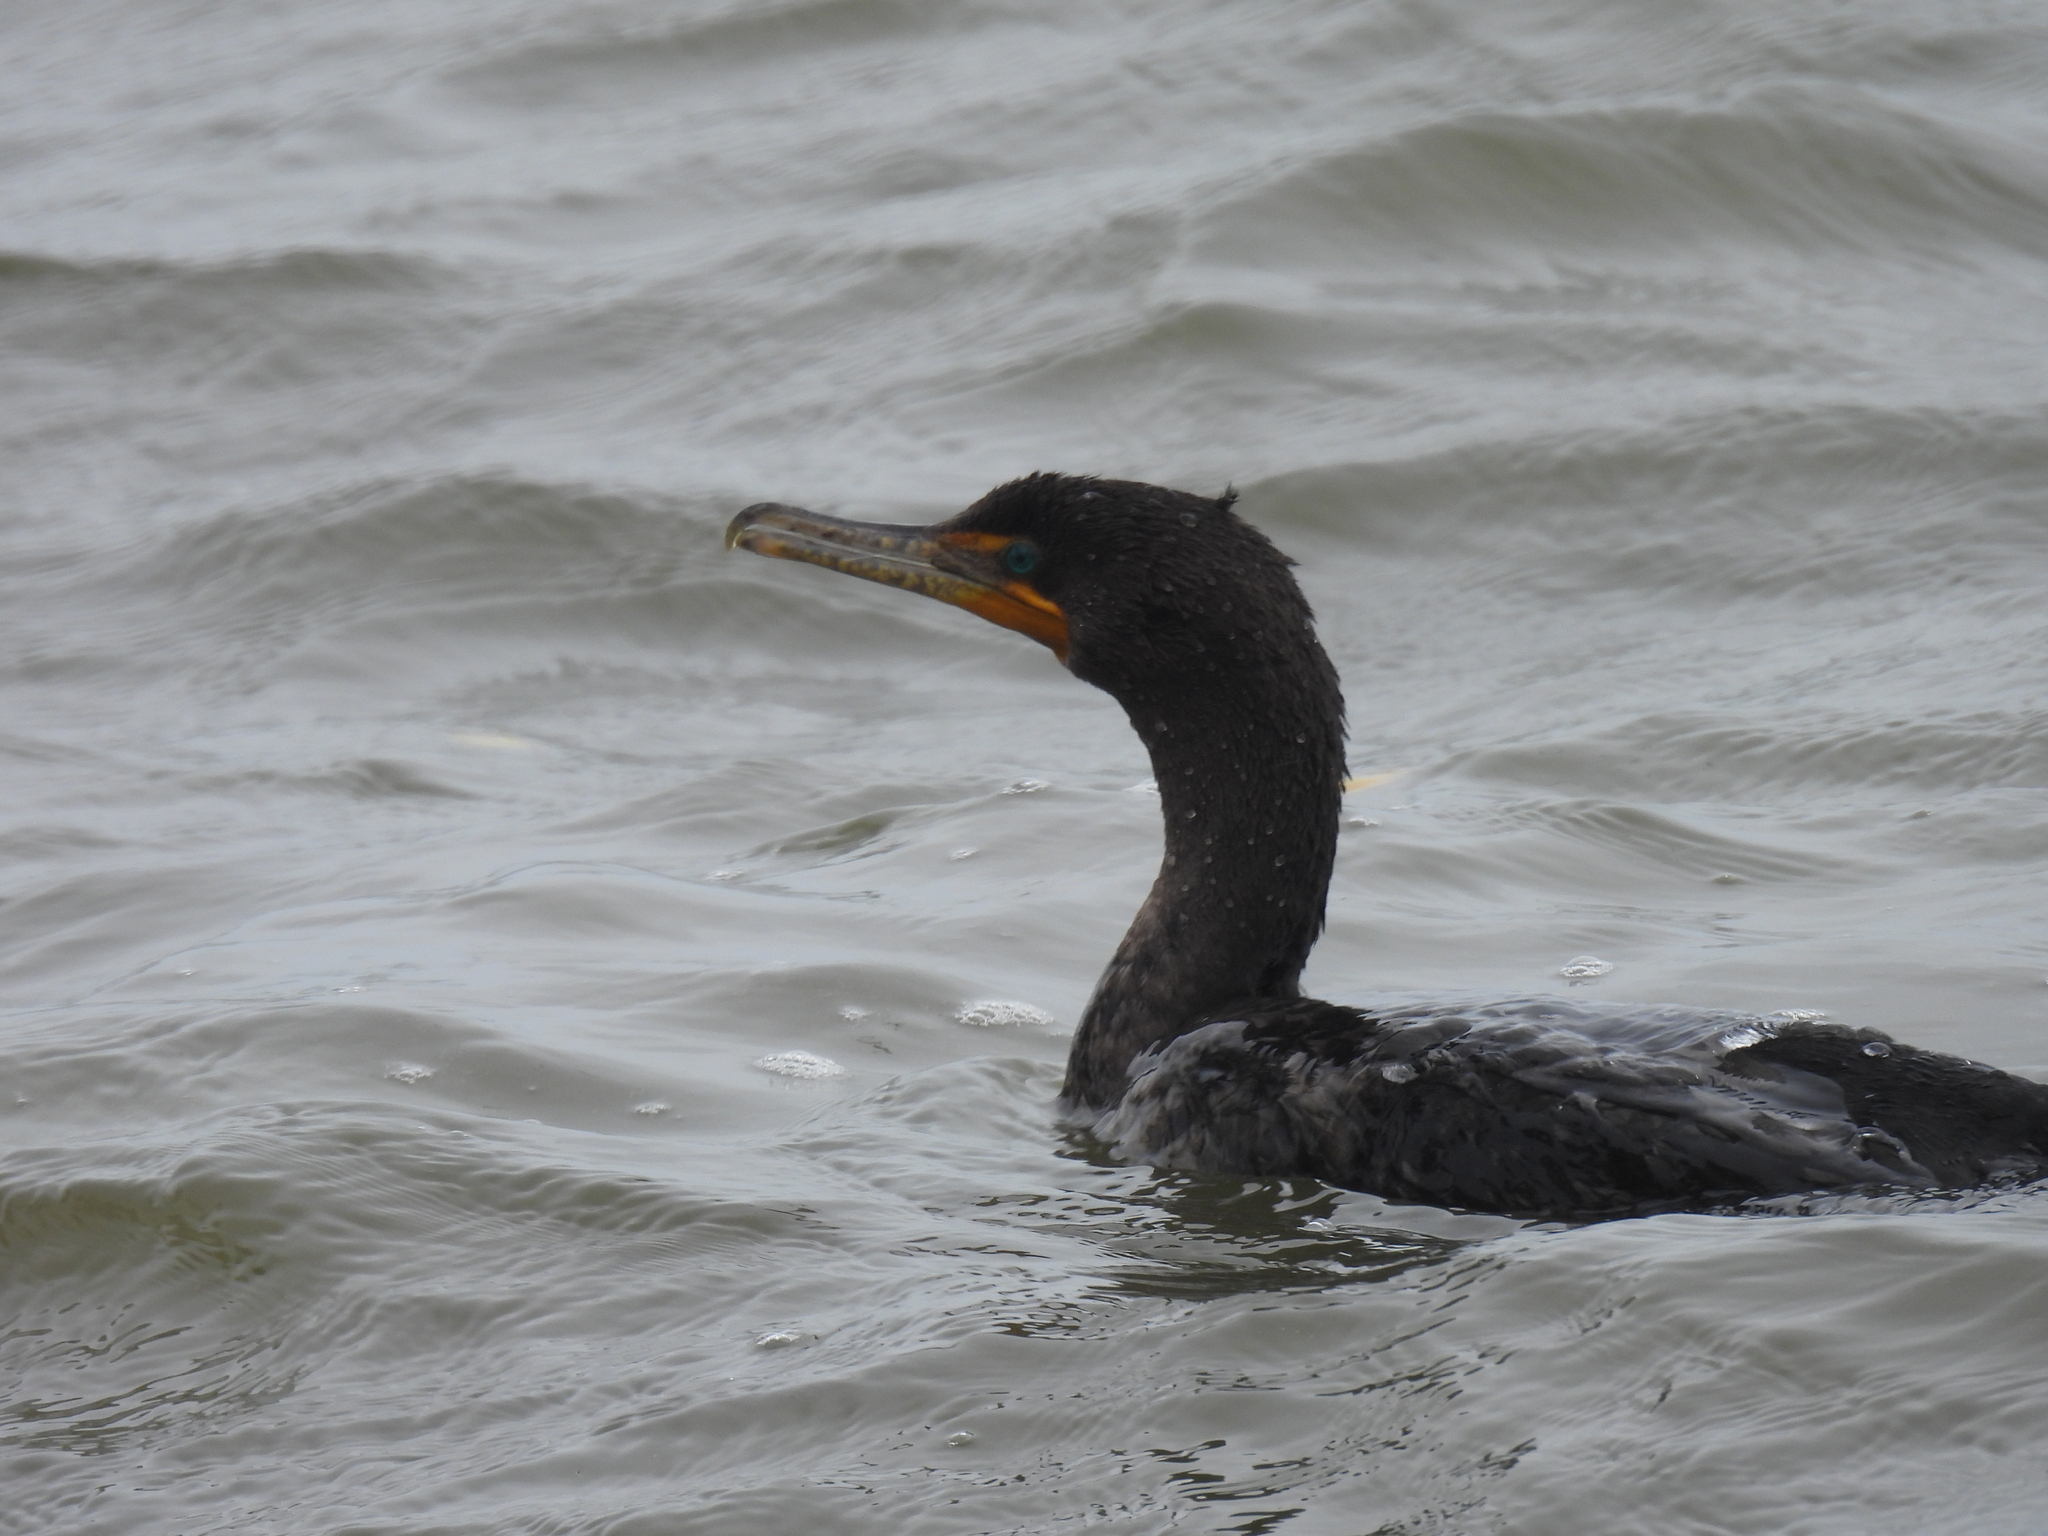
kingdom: Animalia
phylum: Chordata
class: Aves
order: Suliformes
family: Phalacrocoracidae
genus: Phalacrocorax
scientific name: Phalacrocorax auritus
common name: Double-crested cormorant
